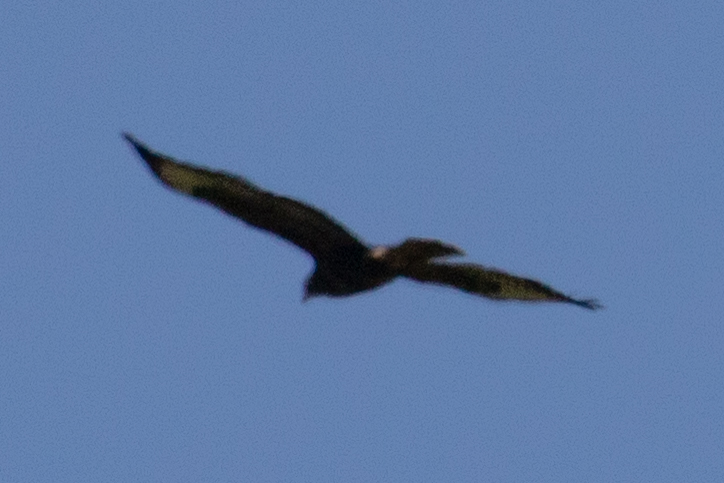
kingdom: Animalia
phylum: Chordata
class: Aves
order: Accipitriformes
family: Accipitridae
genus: Buteo
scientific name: Buteo buteo
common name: Common buzzard
